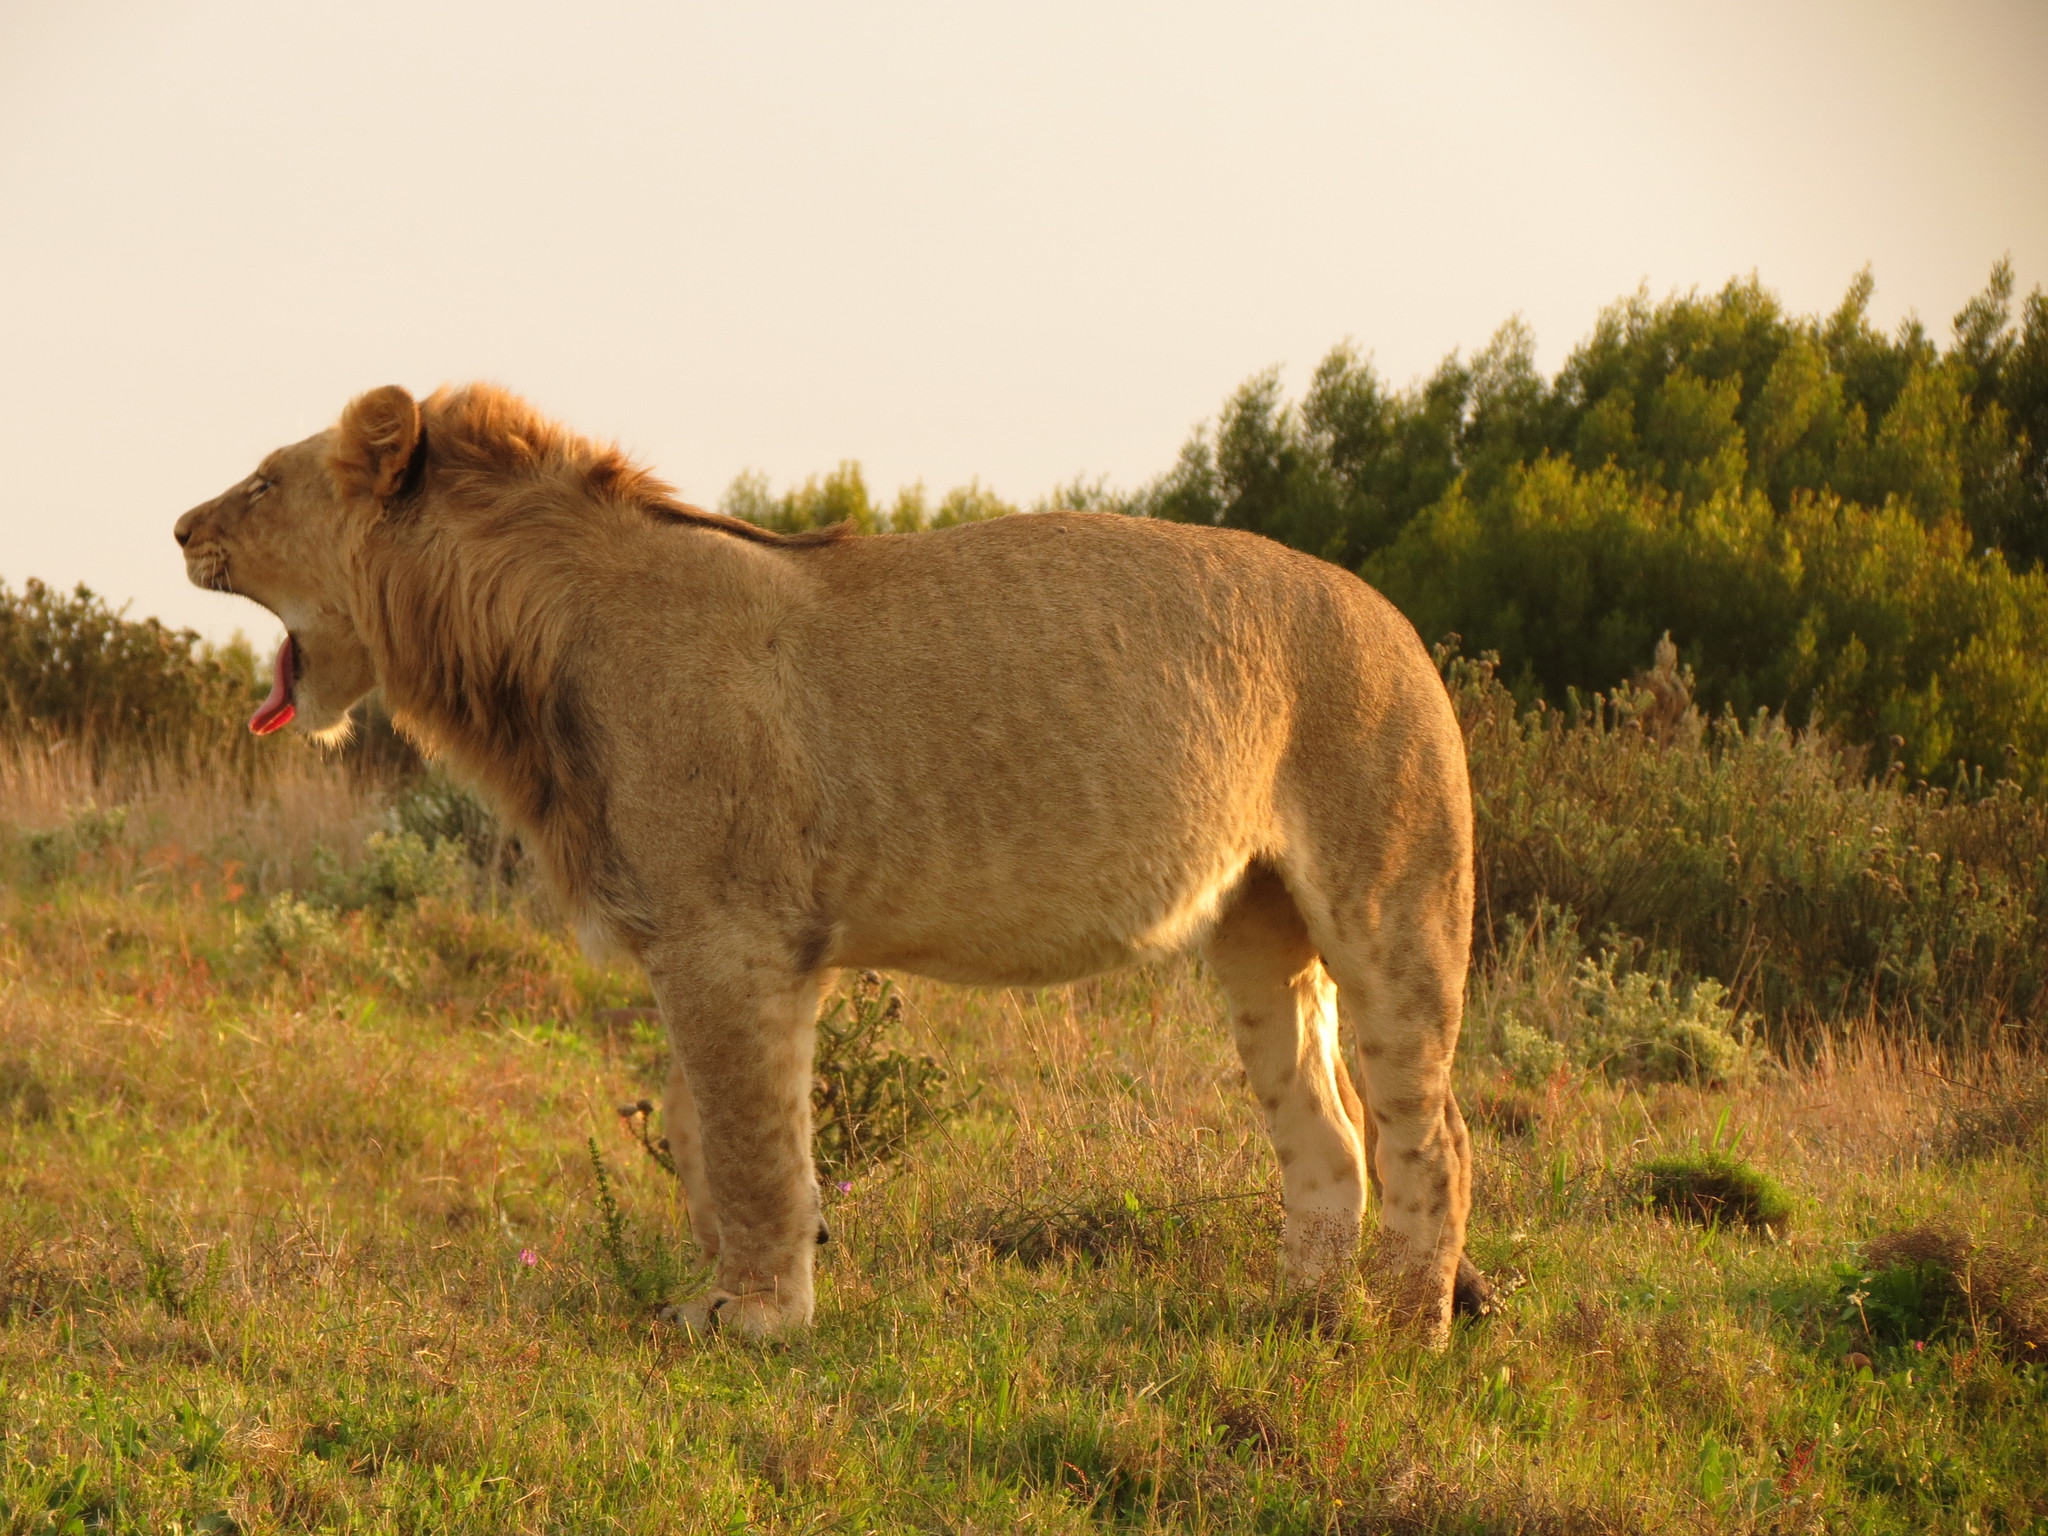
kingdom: Animalia
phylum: Chordata
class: Mammalia
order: Carnivora
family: Felidae
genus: Panthera
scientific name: Panthera leo
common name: Lion
